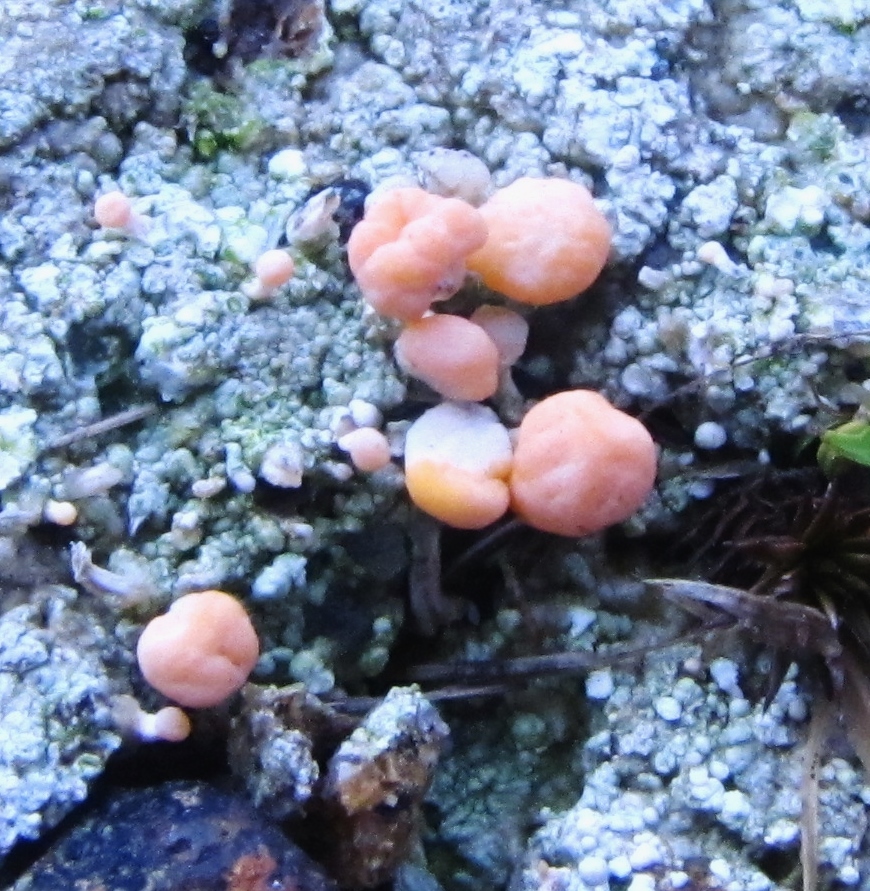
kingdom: Fungi
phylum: Ascomycota
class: Lecanoromycetes
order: Pertusariales
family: Icmadophilaceae
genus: Dibaeis
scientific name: Dibaeis baeomyces
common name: Pink earth lichen
